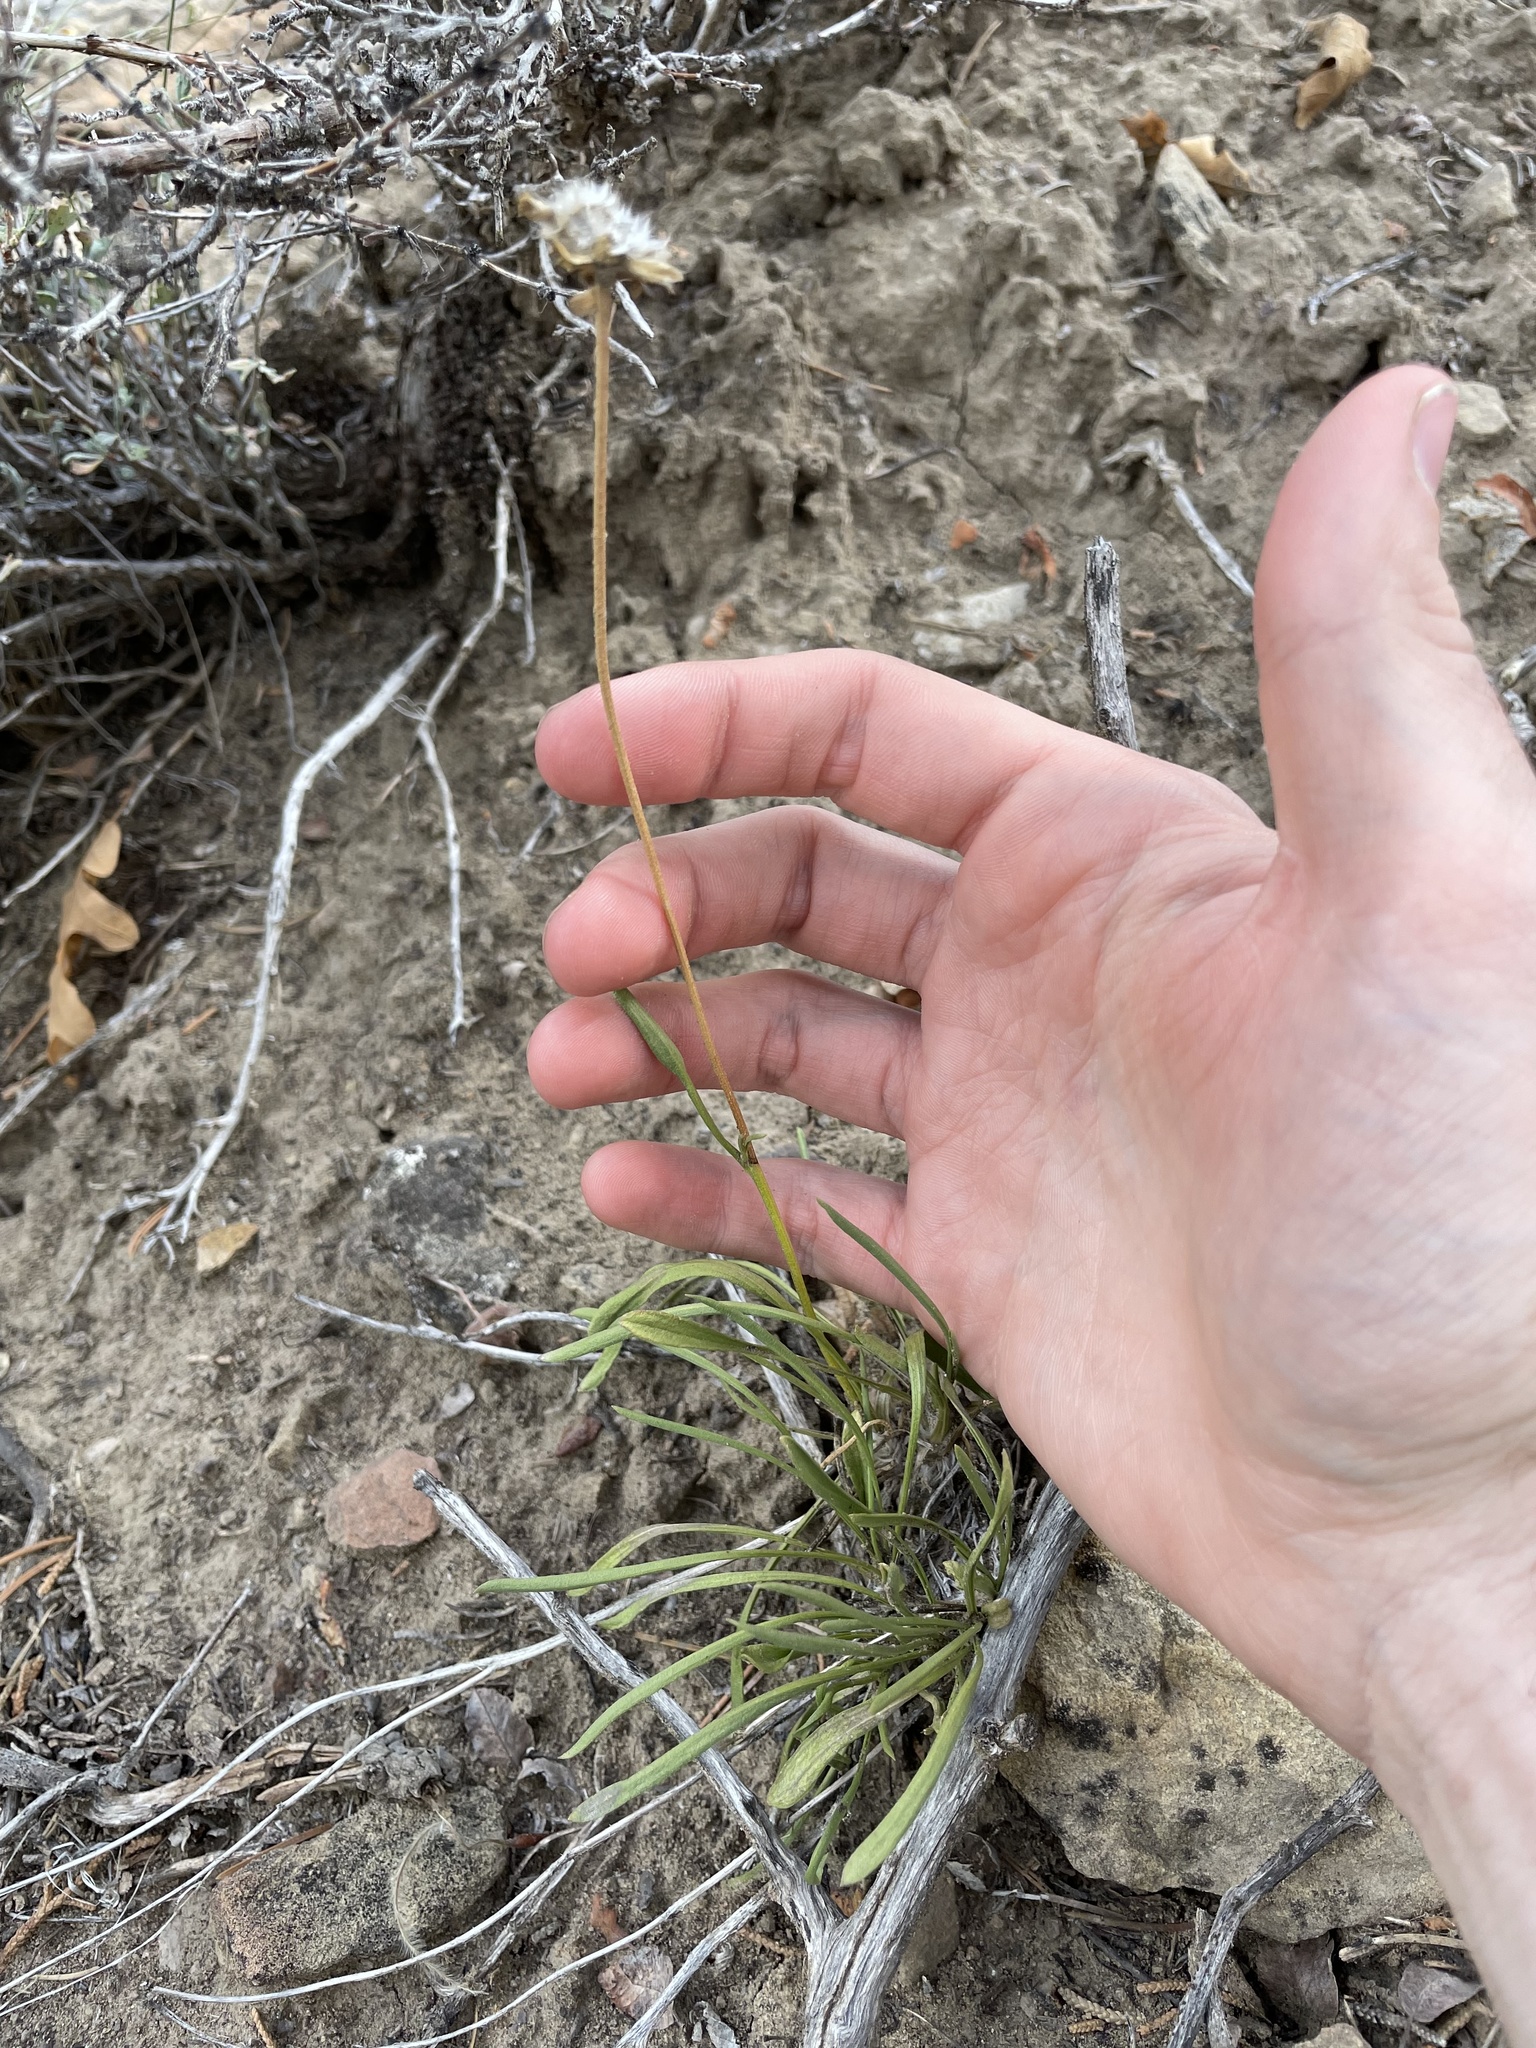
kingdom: Plantae
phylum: Tracheophyta
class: Magnoliopsida
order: Asterales
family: Asteraceae
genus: Tetraneuris
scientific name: Tetraneuris ivesiana
